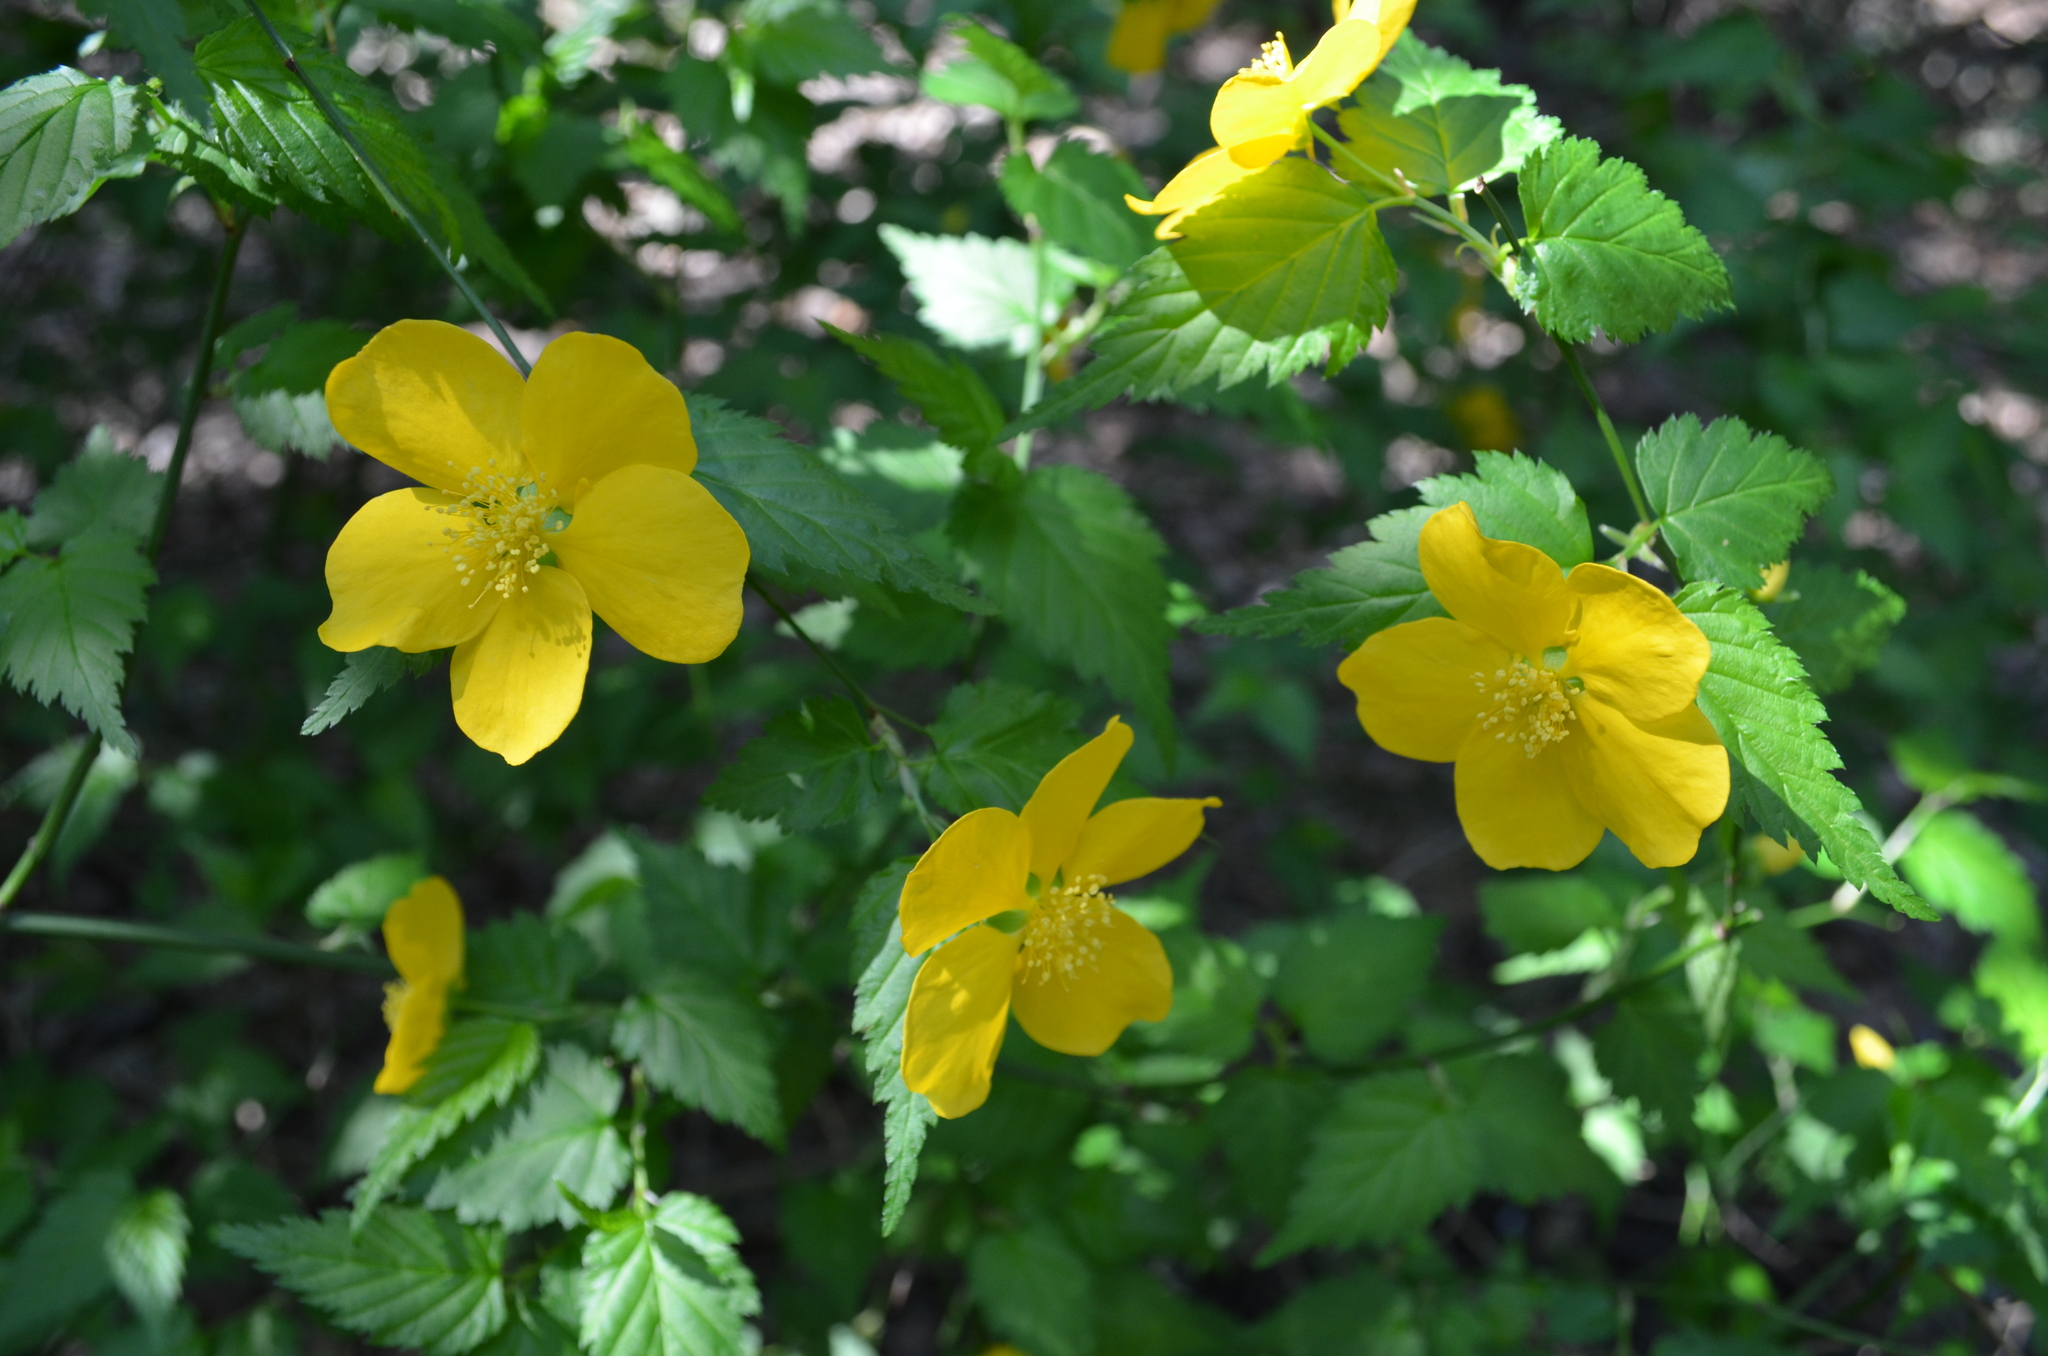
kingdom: Plantae
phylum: Tracheophyta
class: Magnoliopsida
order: Rosales
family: Rosaceae
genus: Kerria
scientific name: Kerria japonica
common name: Japanese kerria
